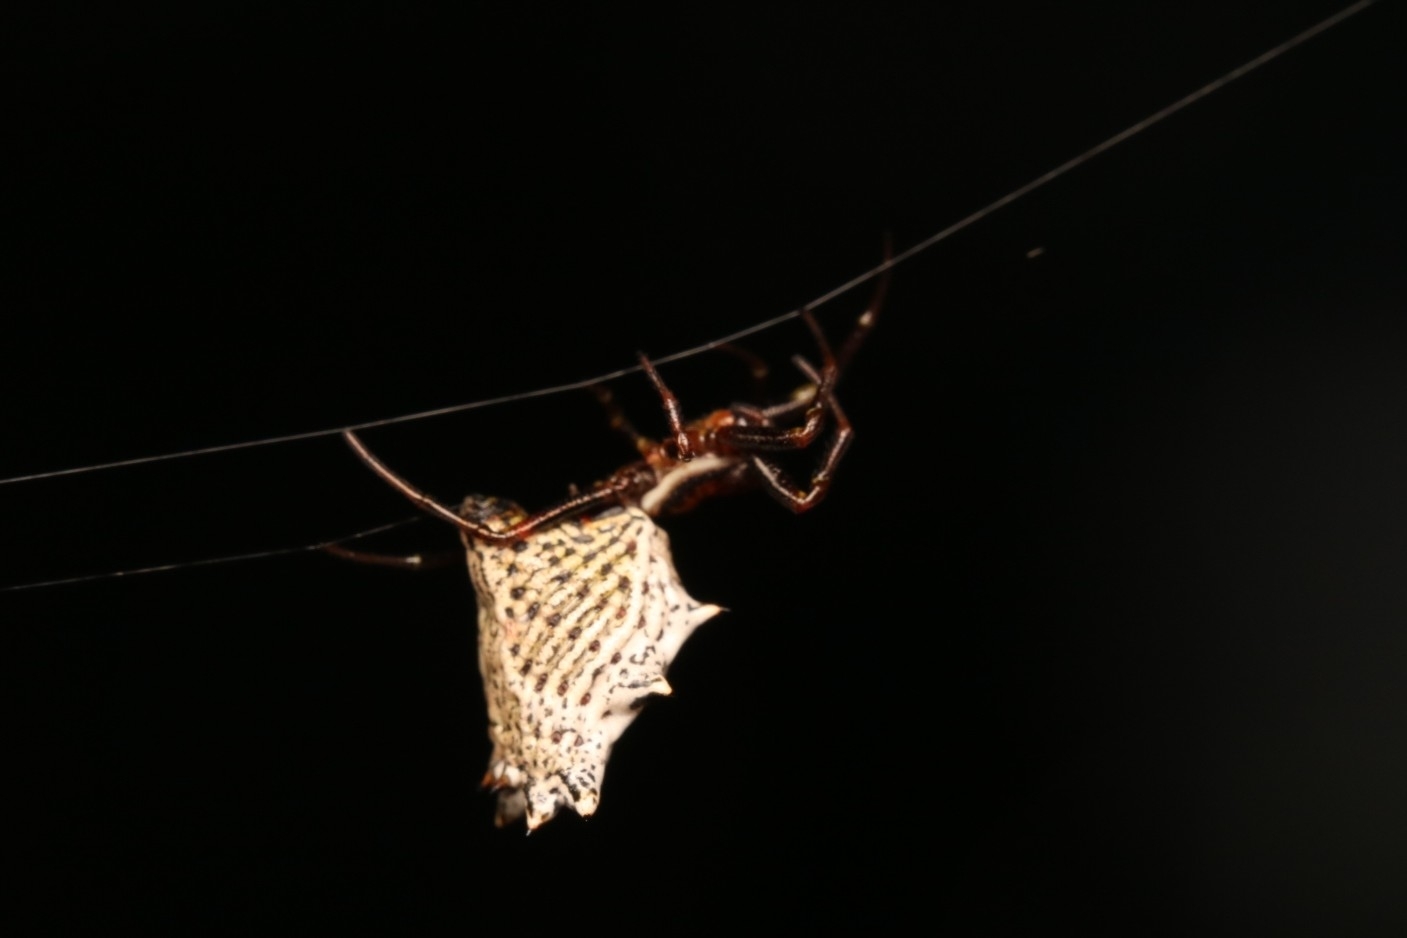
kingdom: Animalia
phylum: Arthropoda
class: Arachnida
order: Araneae
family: Araneidae
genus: Micrathena
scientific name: Micrathena gracilis
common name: Orb weavers
